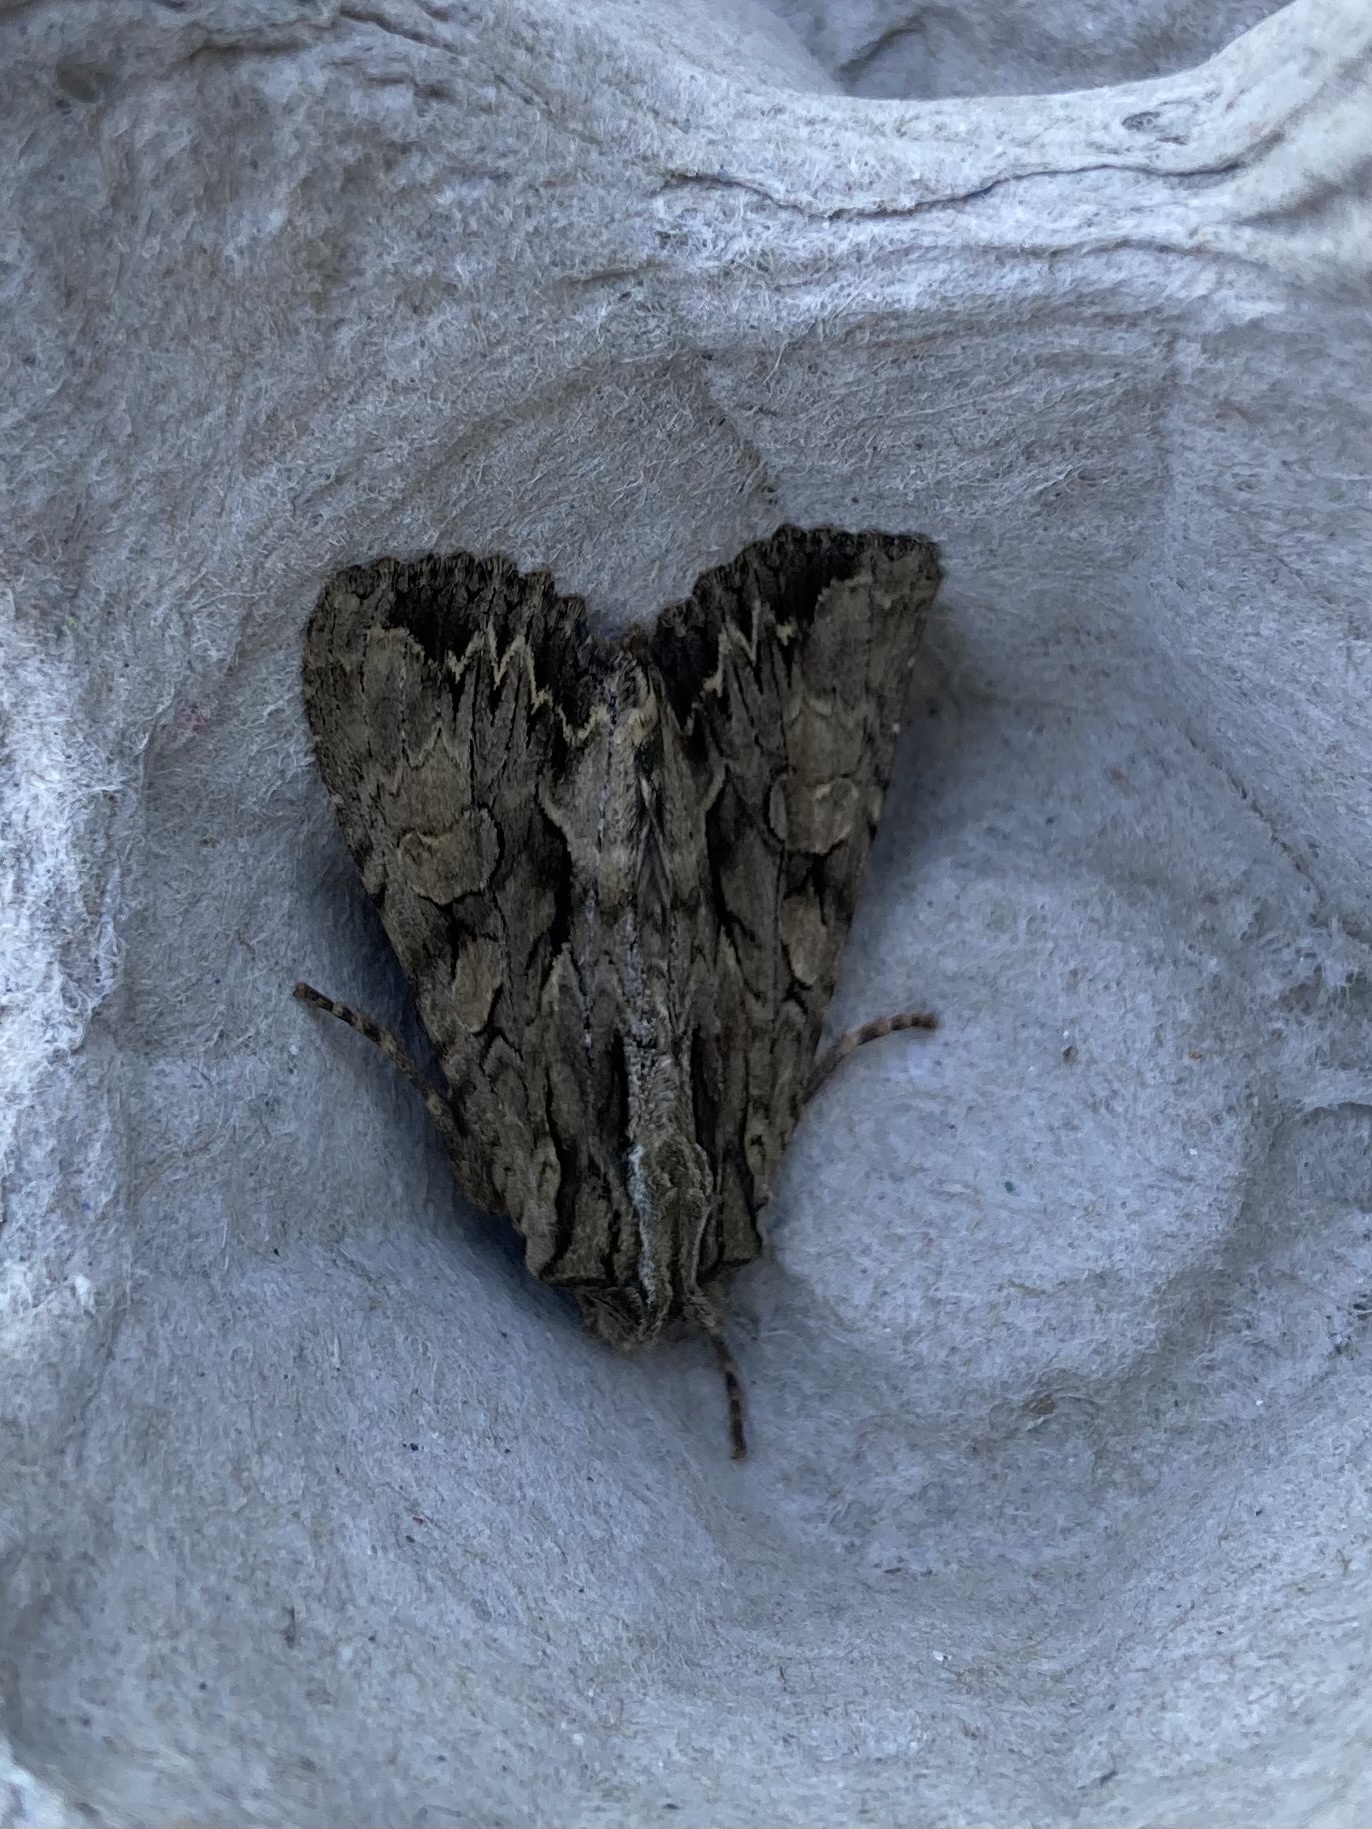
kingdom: Animalia
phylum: Arthropoda
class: Insecta
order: Lepidoptera
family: Noctuidae
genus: Apamea
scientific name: Apamea monoglypha
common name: Dark arches
